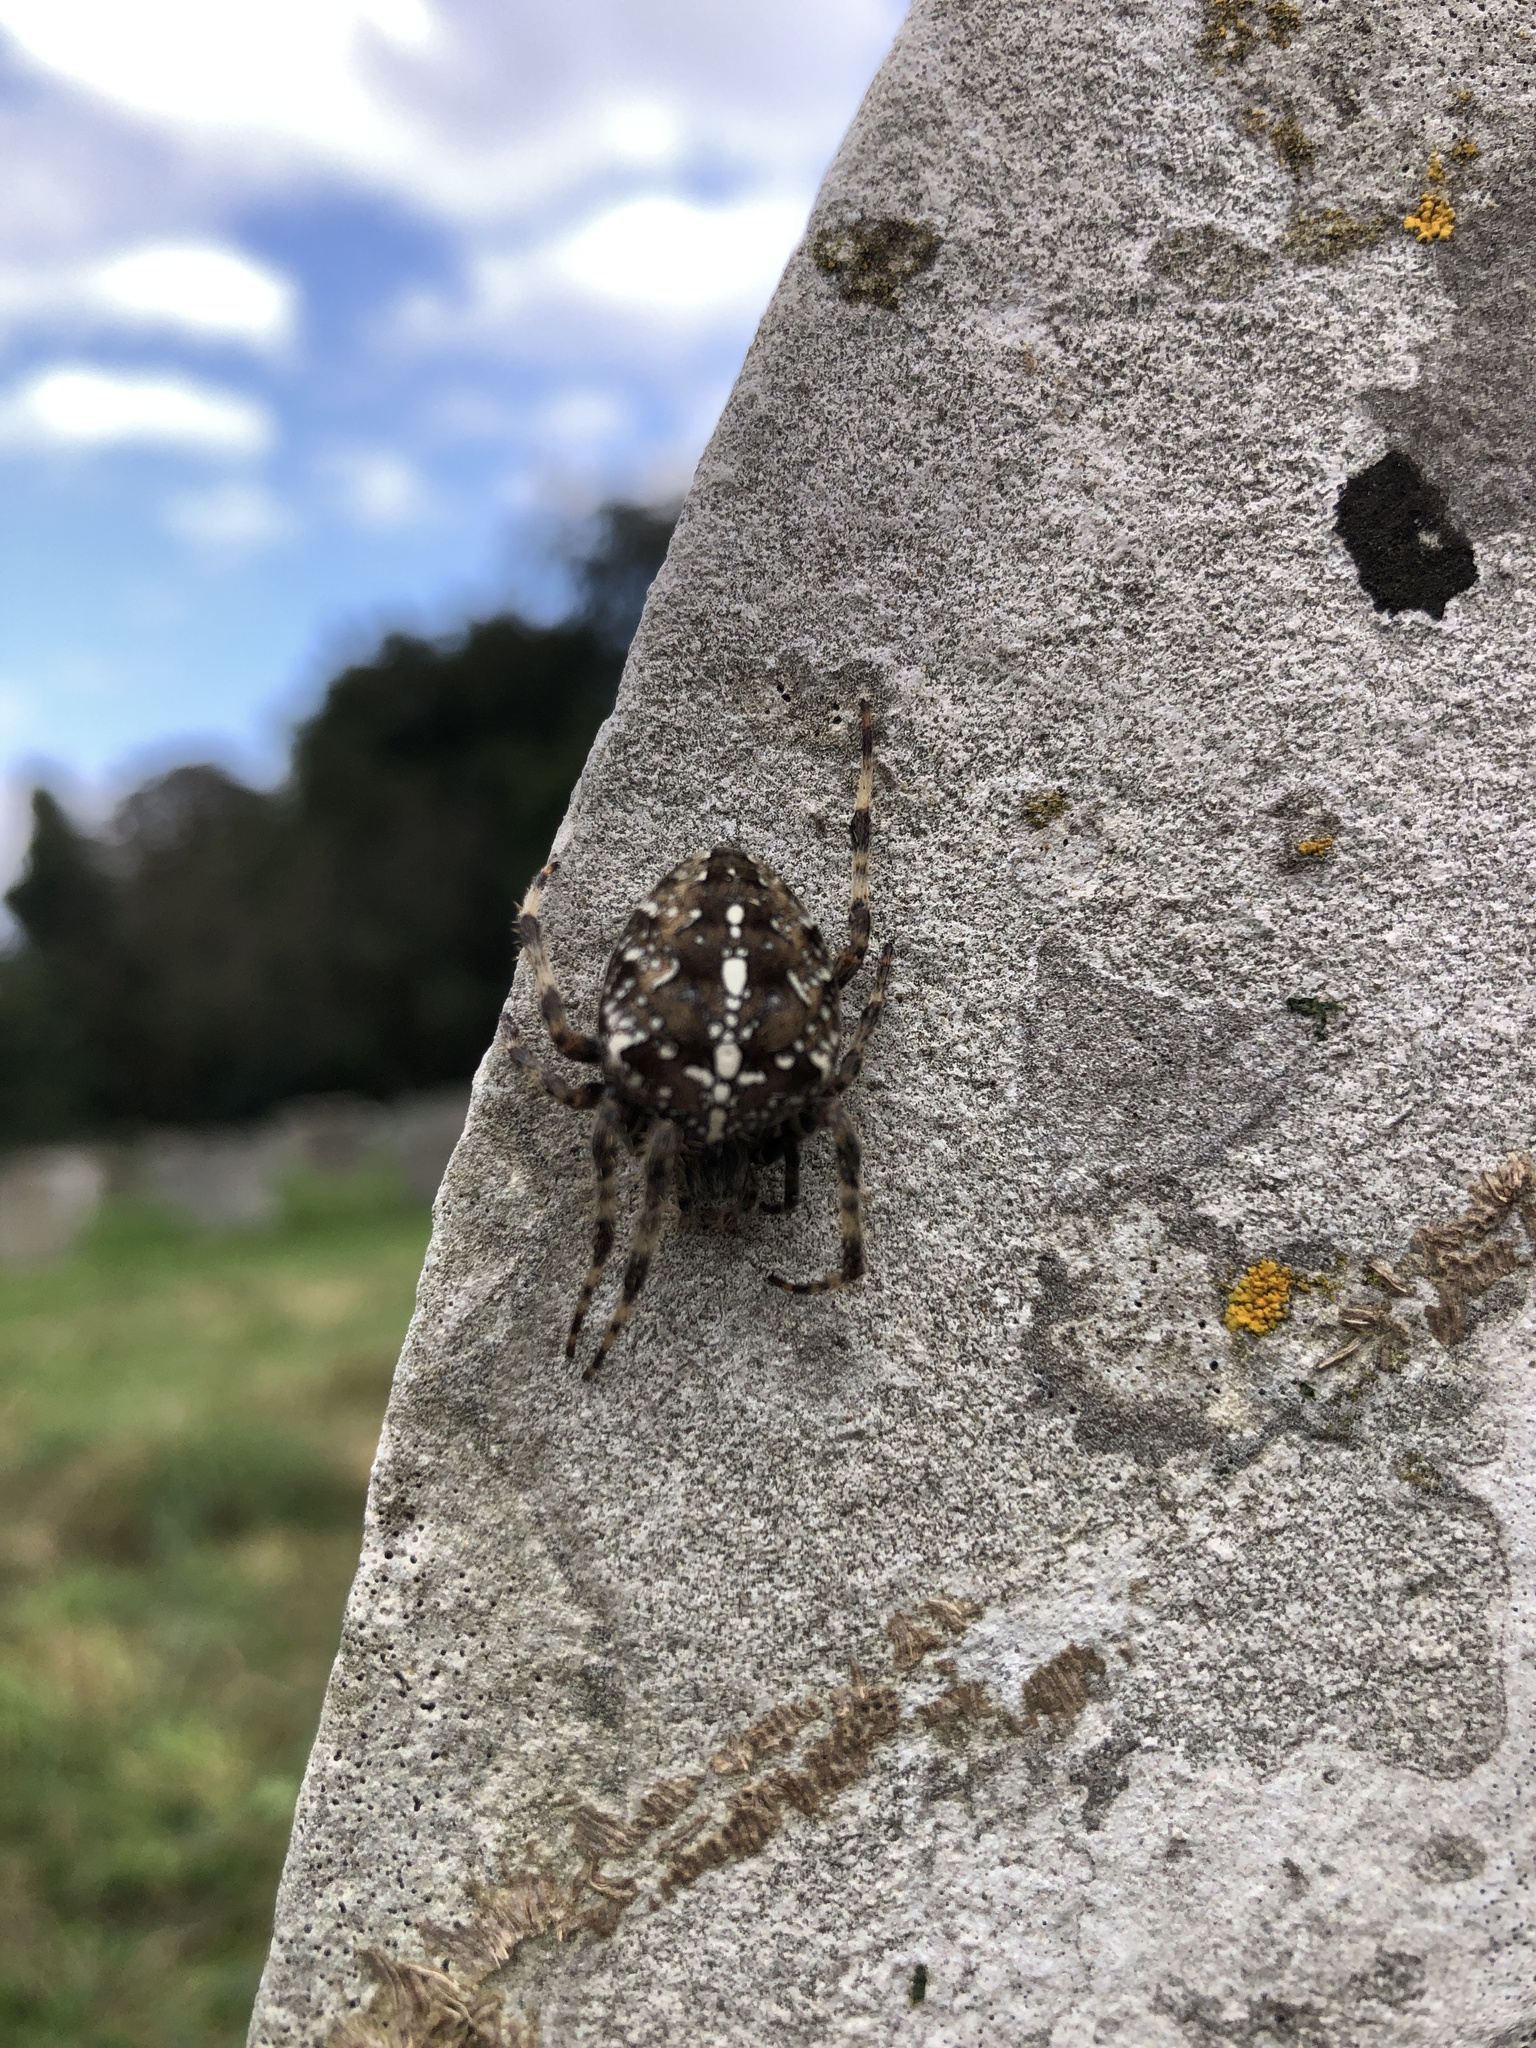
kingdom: Animalia
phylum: Arthropoda
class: Arachnida
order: Araneae
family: Araneidae
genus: Araneus
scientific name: Araneus diadematus
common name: Cross orbweaver
